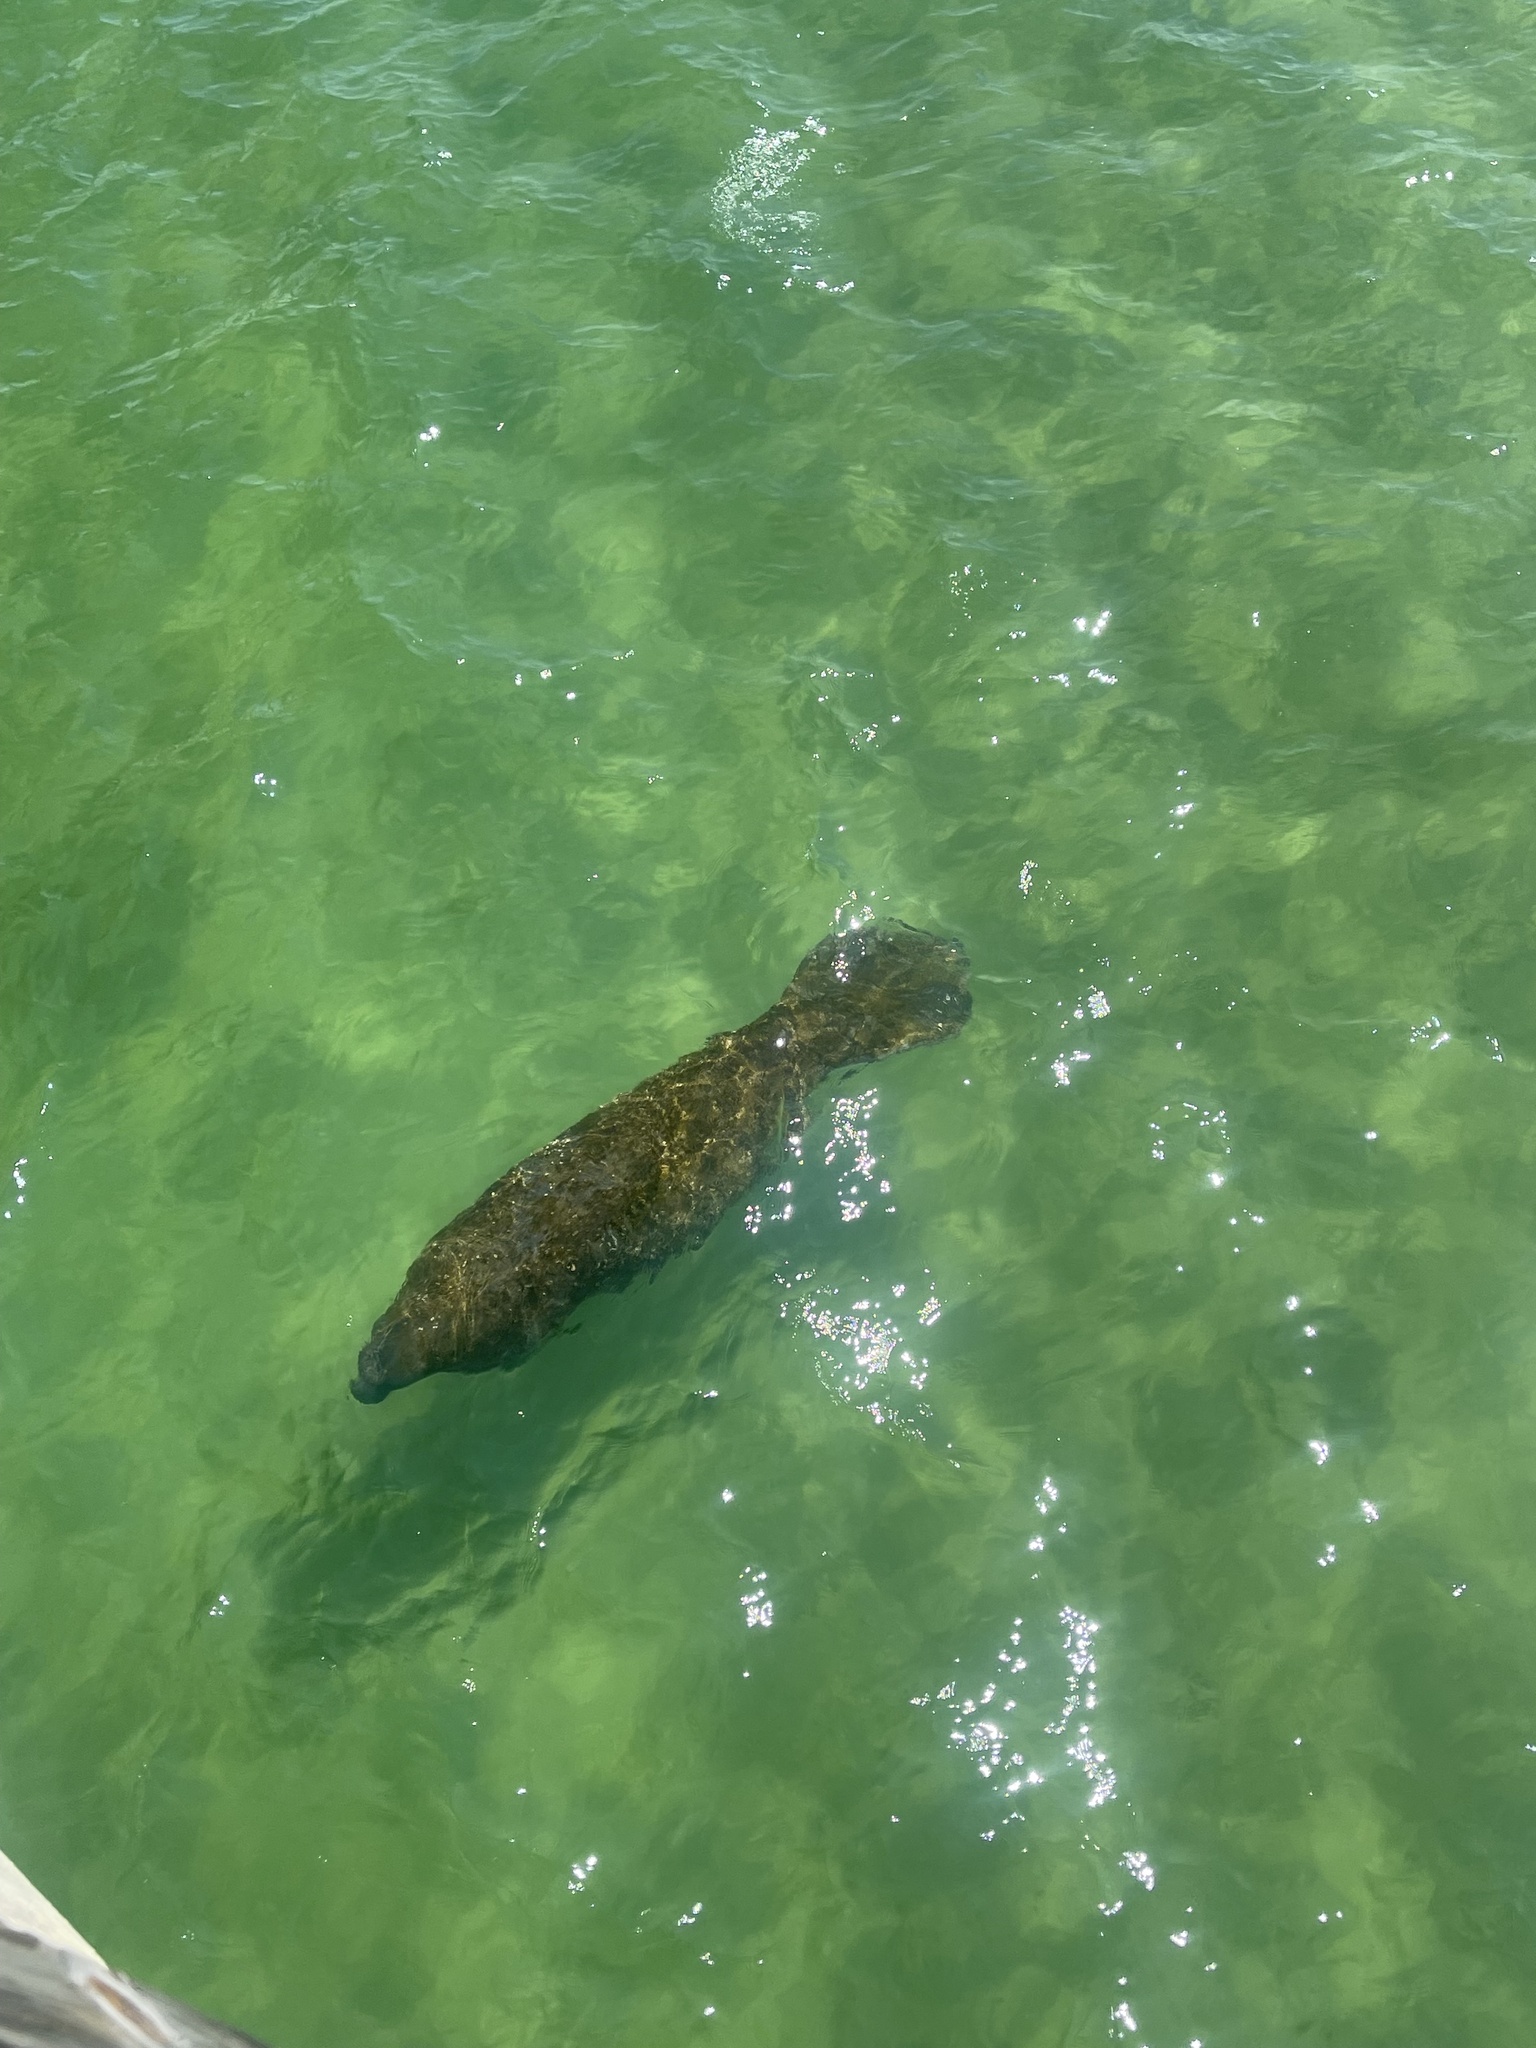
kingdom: Animalia
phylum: Chordata
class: Mammalia
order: Sirenia
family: Trichechidae
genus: Trichechus
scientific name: Trichechus manatus
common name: West indian manatee
